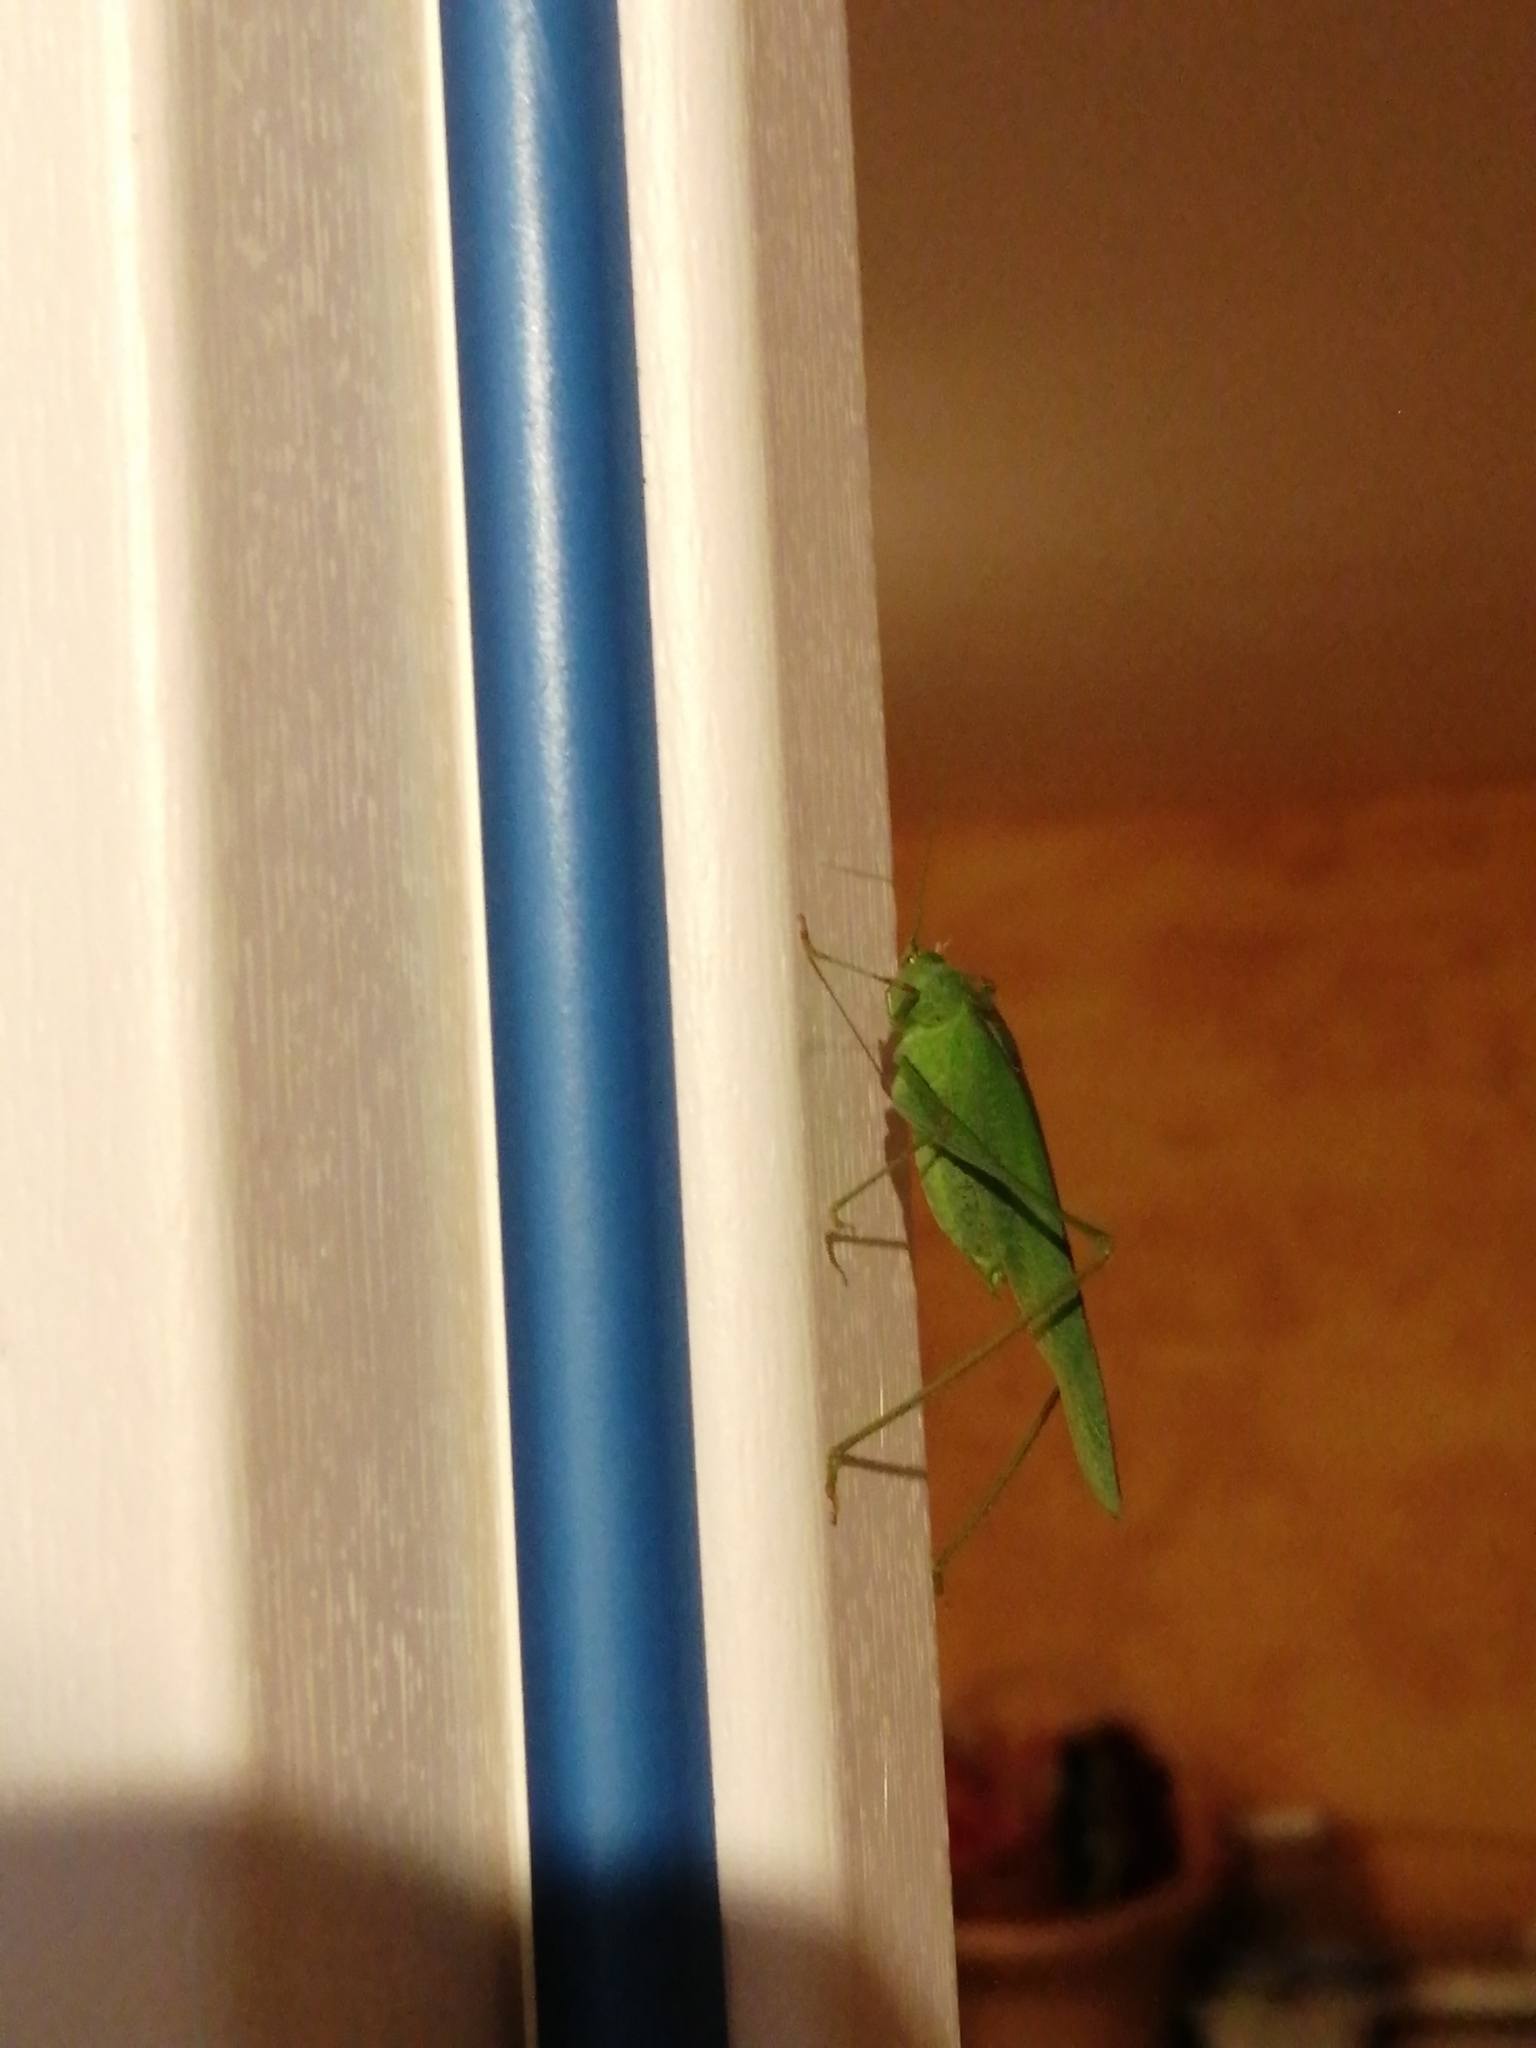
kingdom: Animalia
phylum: Arthropoda
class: Insecta
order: Orthoptera
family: Tettigoniidae
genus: Phaneroptera
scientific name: Phaneroptera nana
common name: Southern sickle bush-cricket
